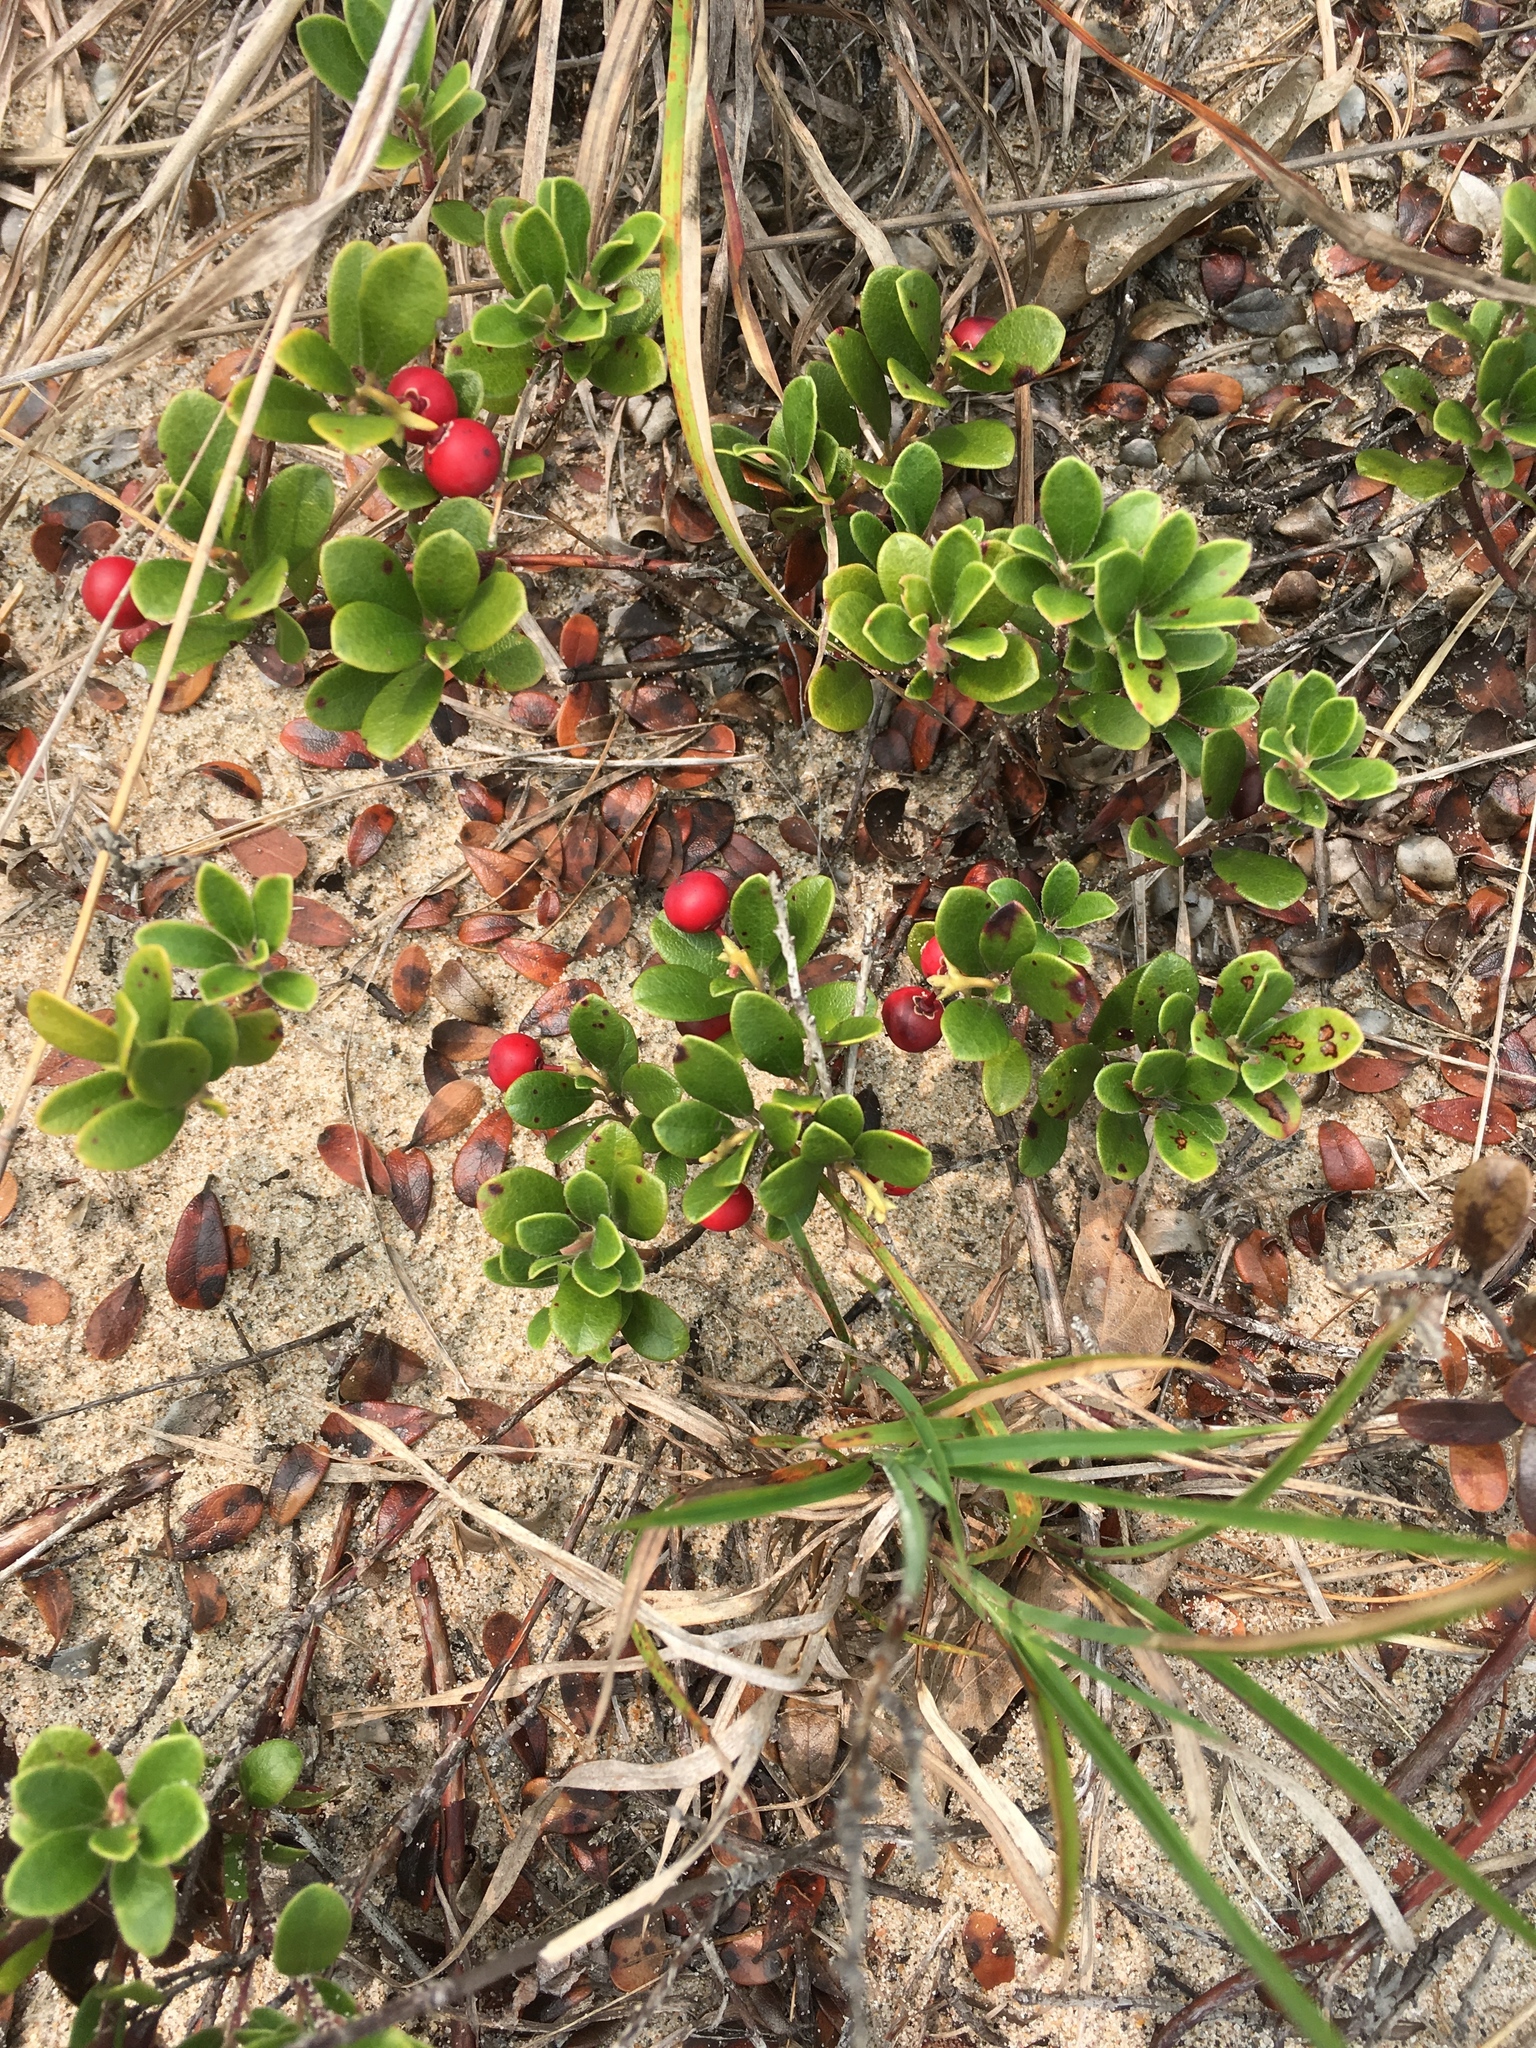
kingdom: Plantae
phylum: Tracheophyta
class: Magnoliopsida
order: Ericales
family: Ericaceae
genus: Arctostaphylos
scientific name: Arctostaphylos uva-ursi
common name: Bearberry
